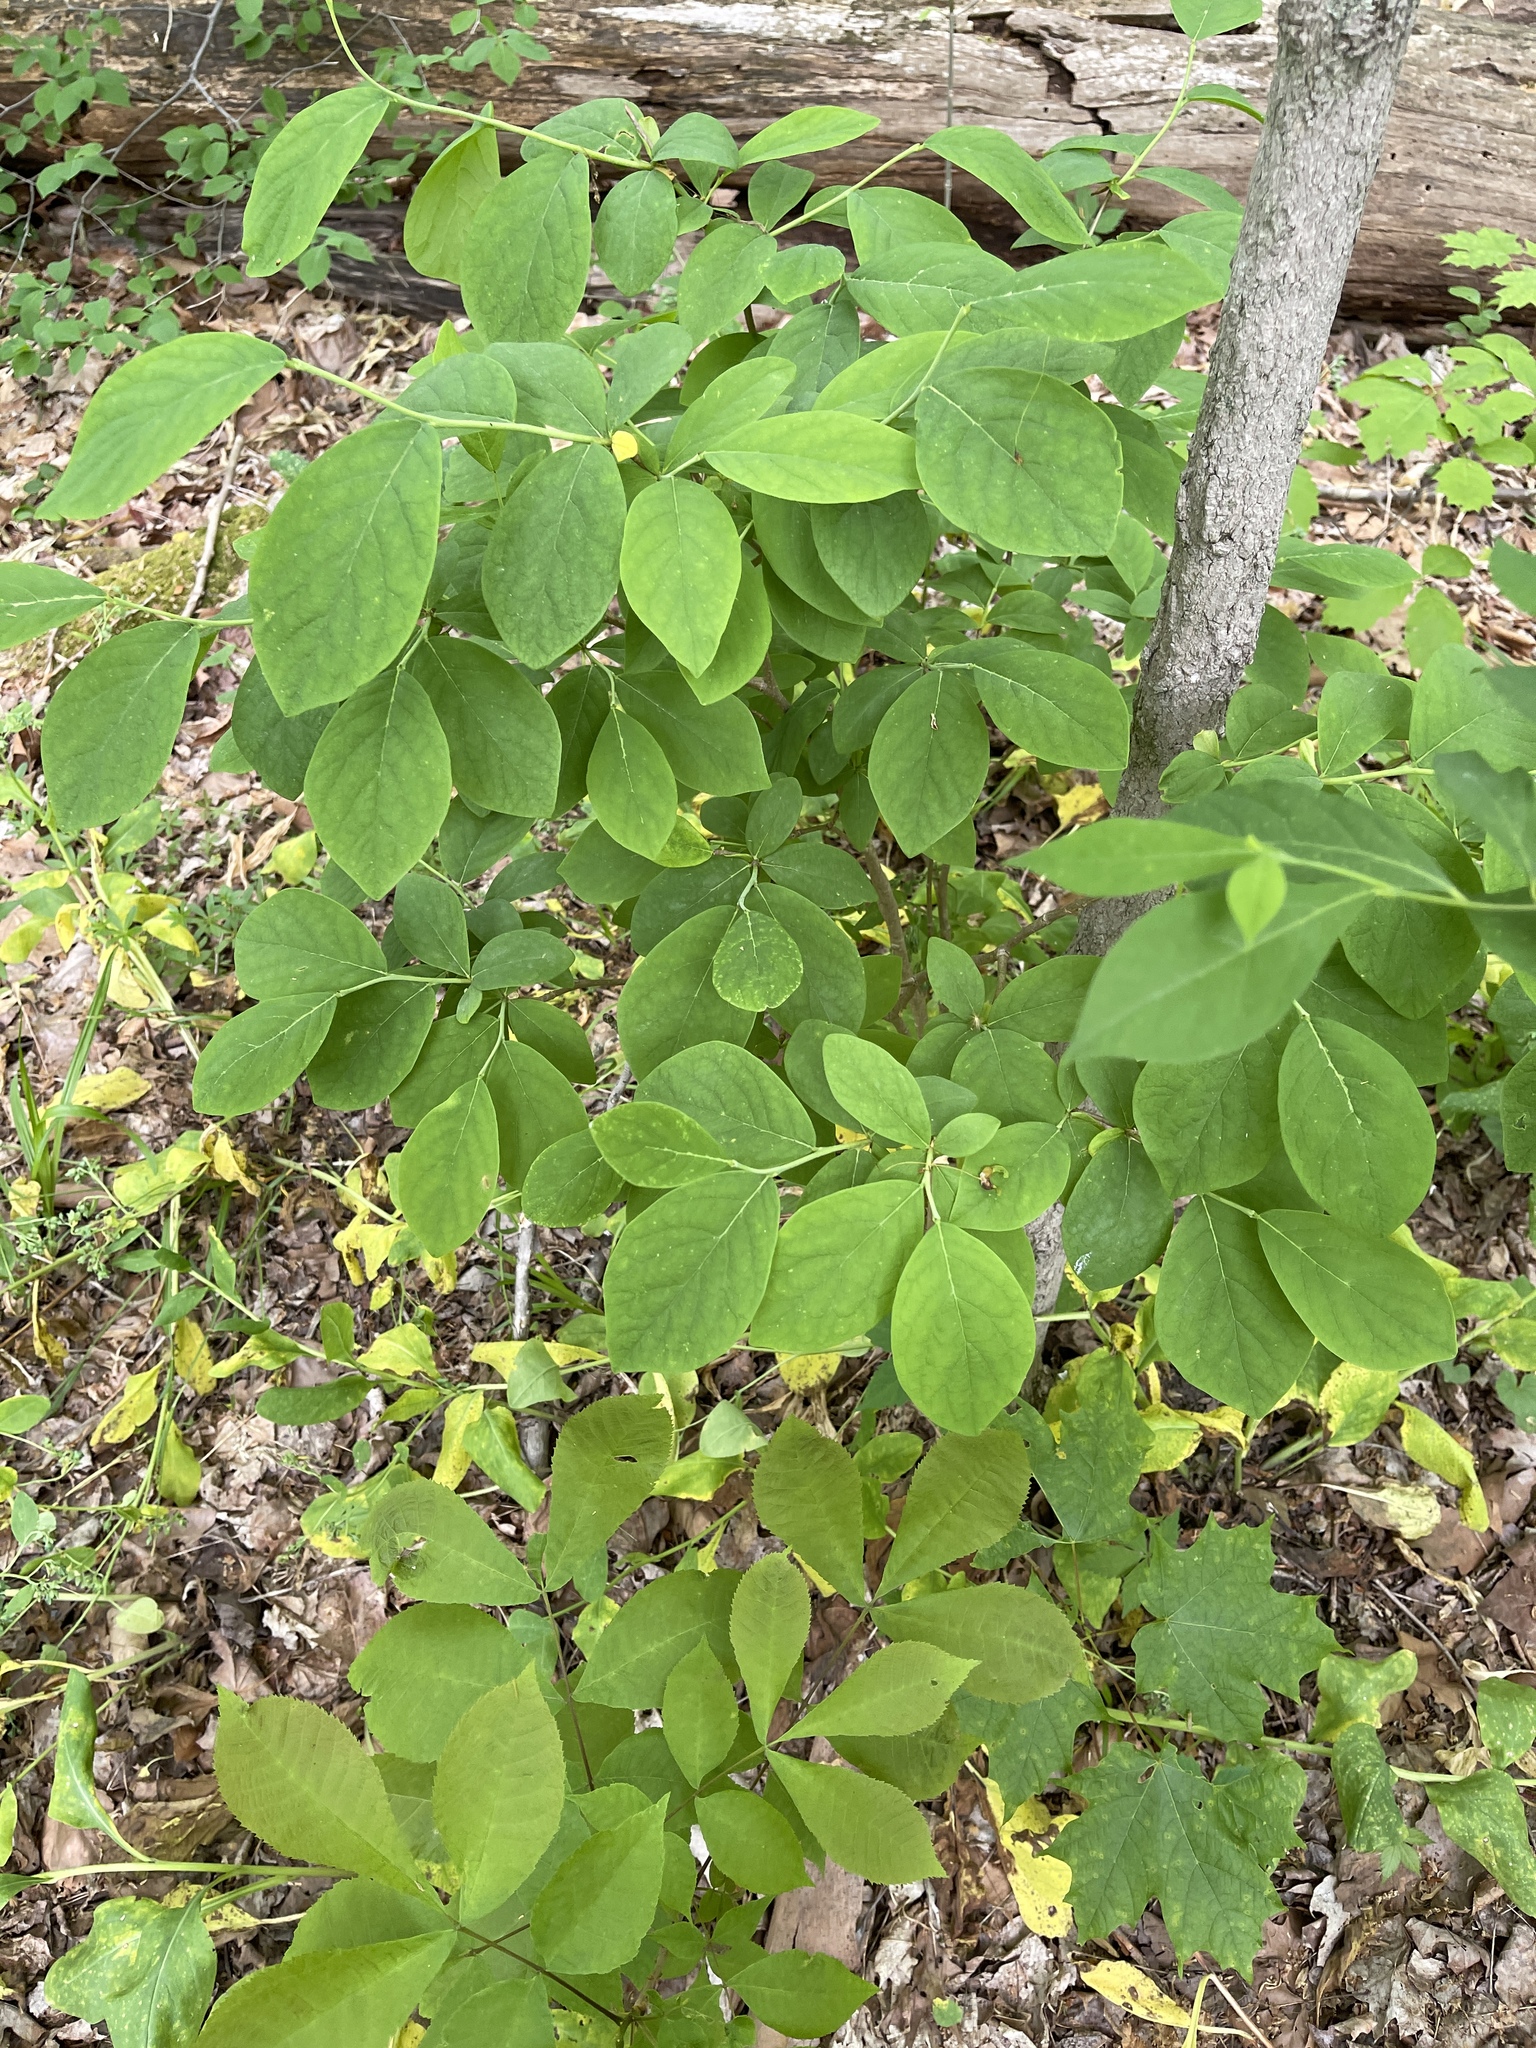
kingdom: Plantae
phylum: Tracheophyta
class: Magnoliopsida
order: Malvales
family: Thymelaeaceae
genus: Dirca
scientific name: Dirca palustris
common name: Leatherwood
